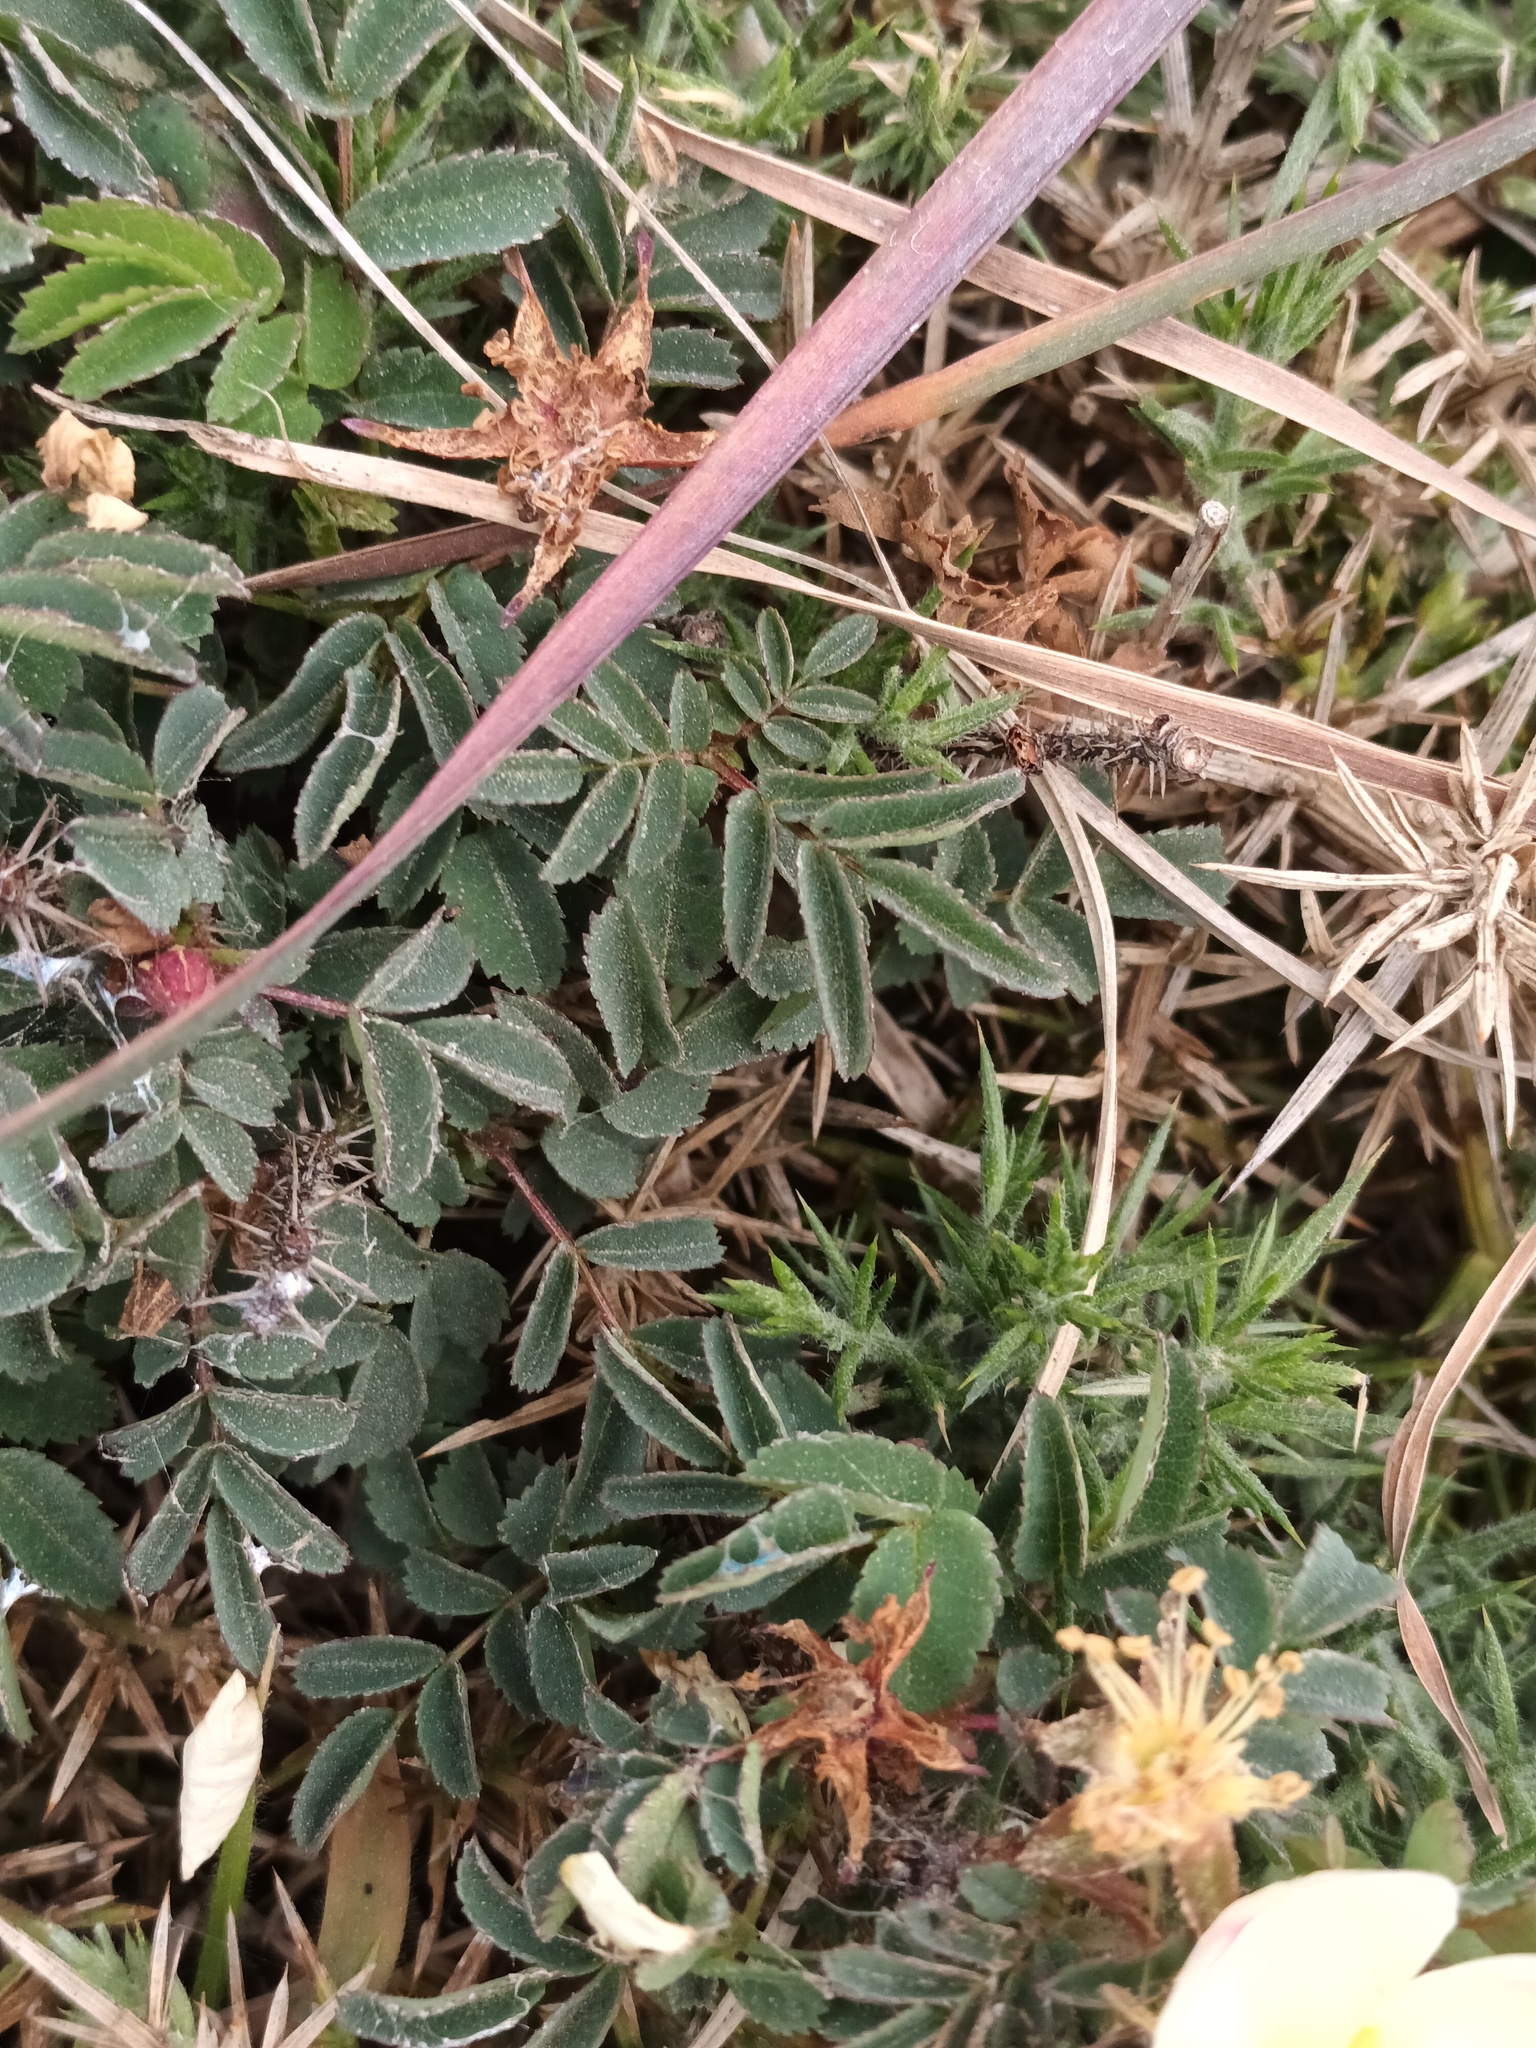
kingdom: Plantae
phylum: Tracheophyta
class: Magnoliopsida
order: Rosales
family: Rosaceae
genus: Rosa
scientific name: Rosa spinosissima
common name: Burnet rose
